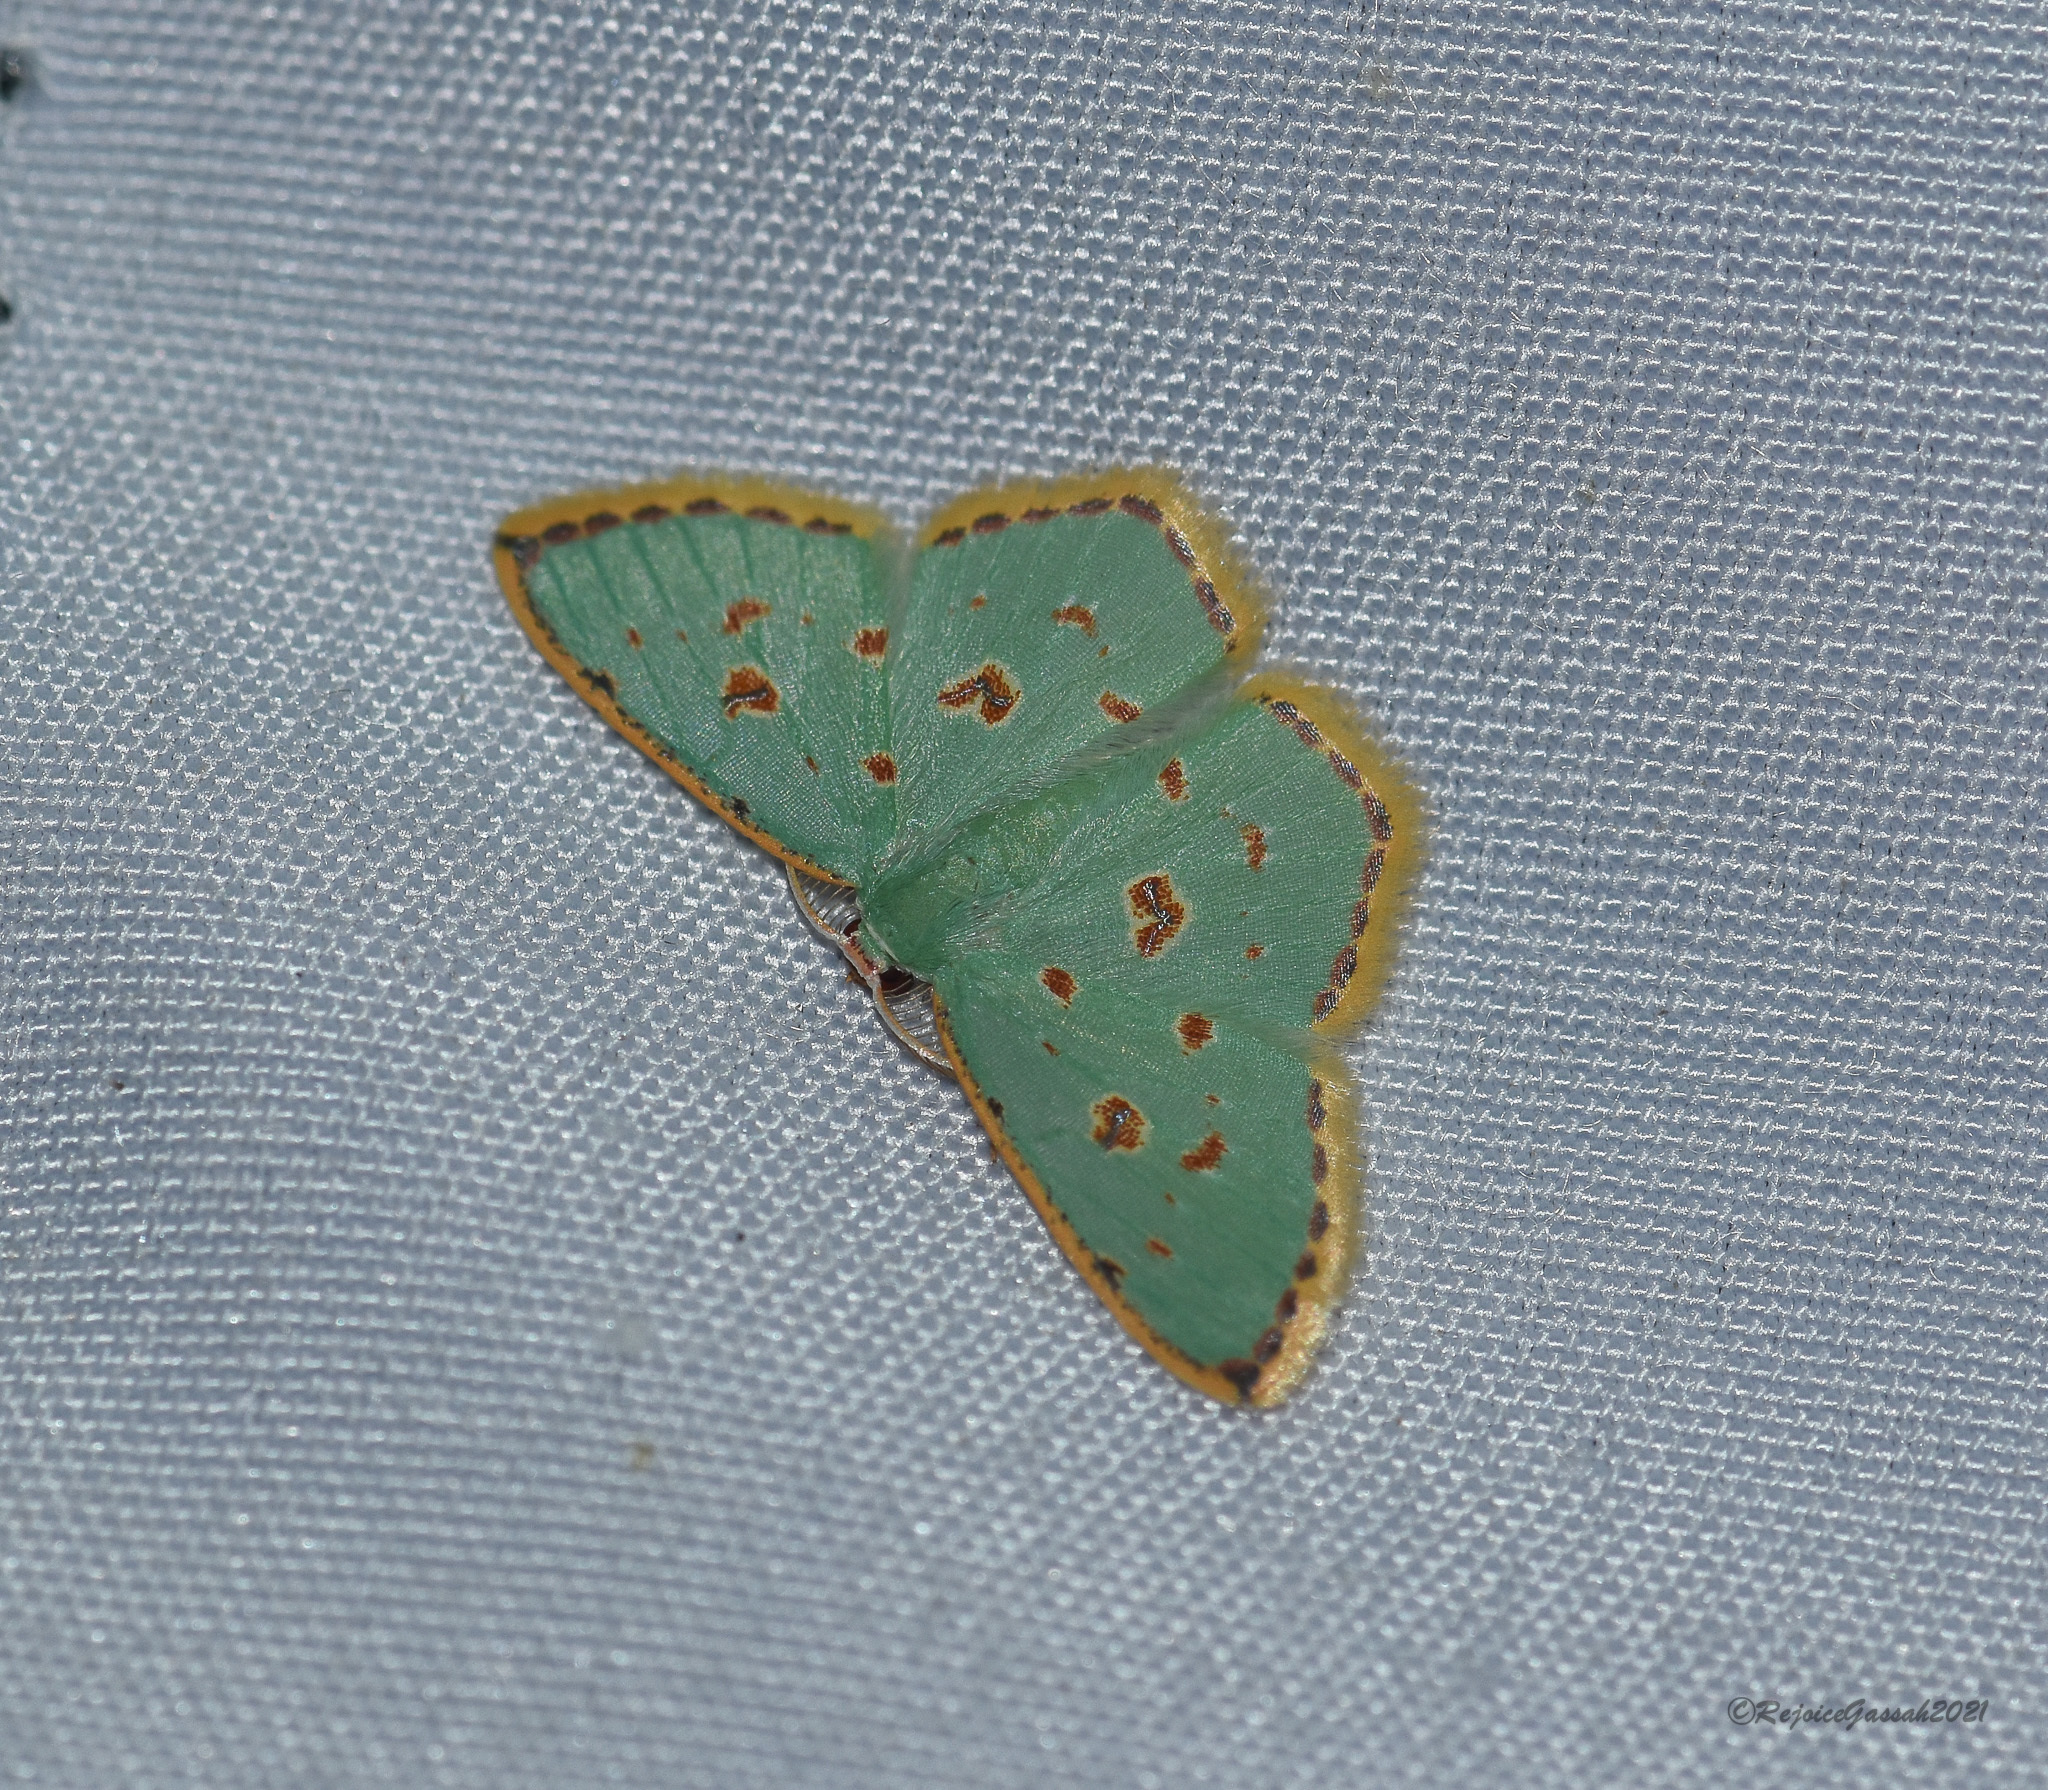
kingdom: Animalia
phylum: Arthropoda
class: Insecta
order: Lepidoptera
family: Geometridae
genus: Comostola
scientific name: Comostola laesaria
